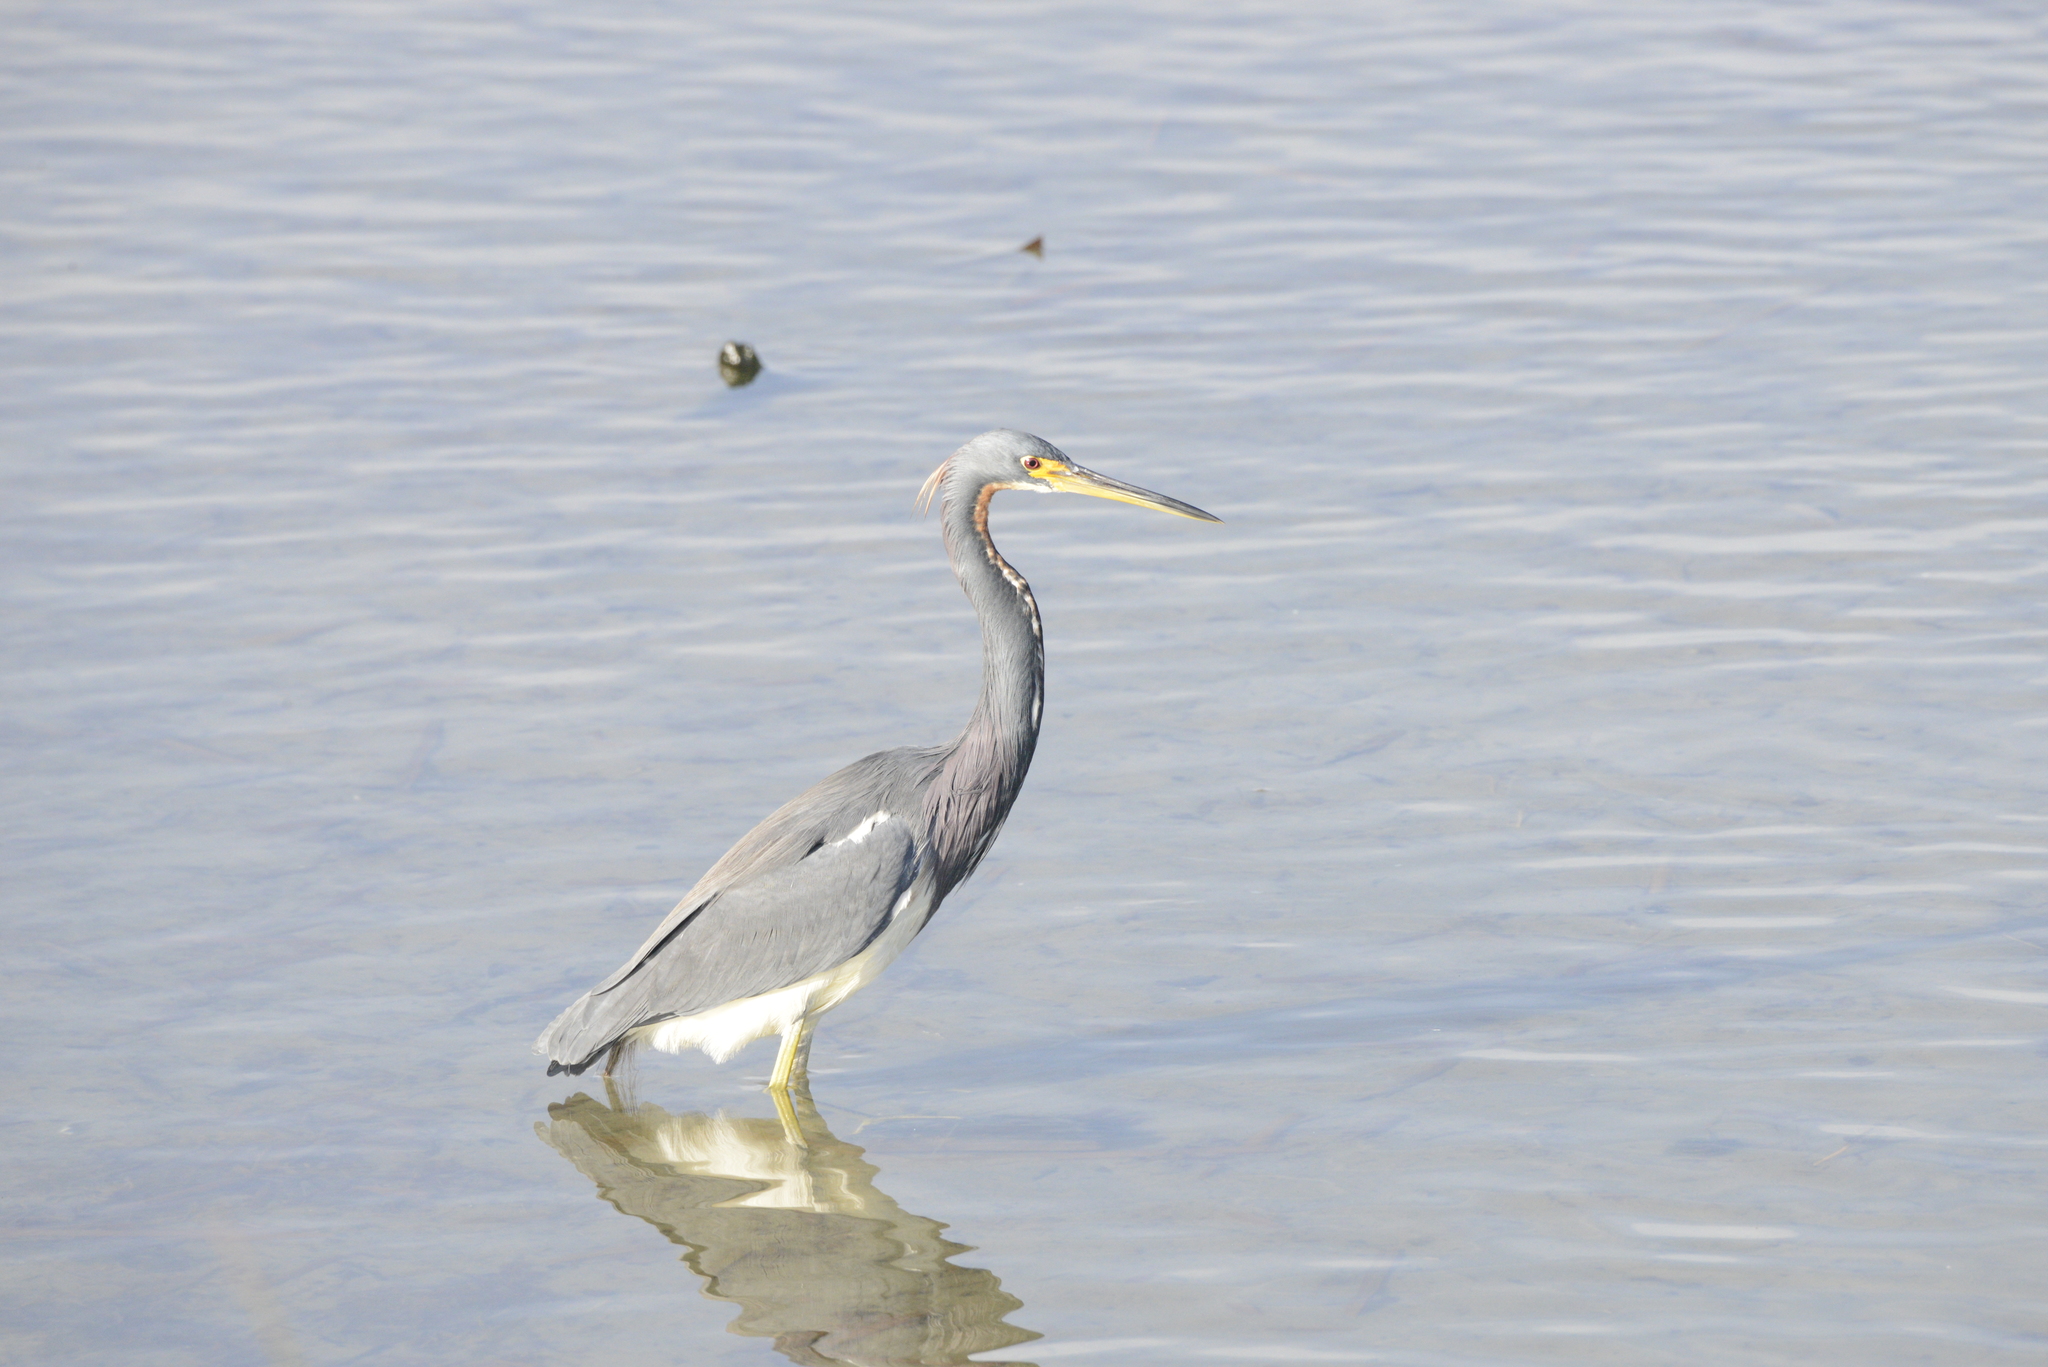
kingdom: Animalia
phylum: Chordata
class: Aves
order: Pelecaniformes
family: Ardeidae
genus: Egretta
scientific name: Egretta tricolor
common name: Tricolored heron
